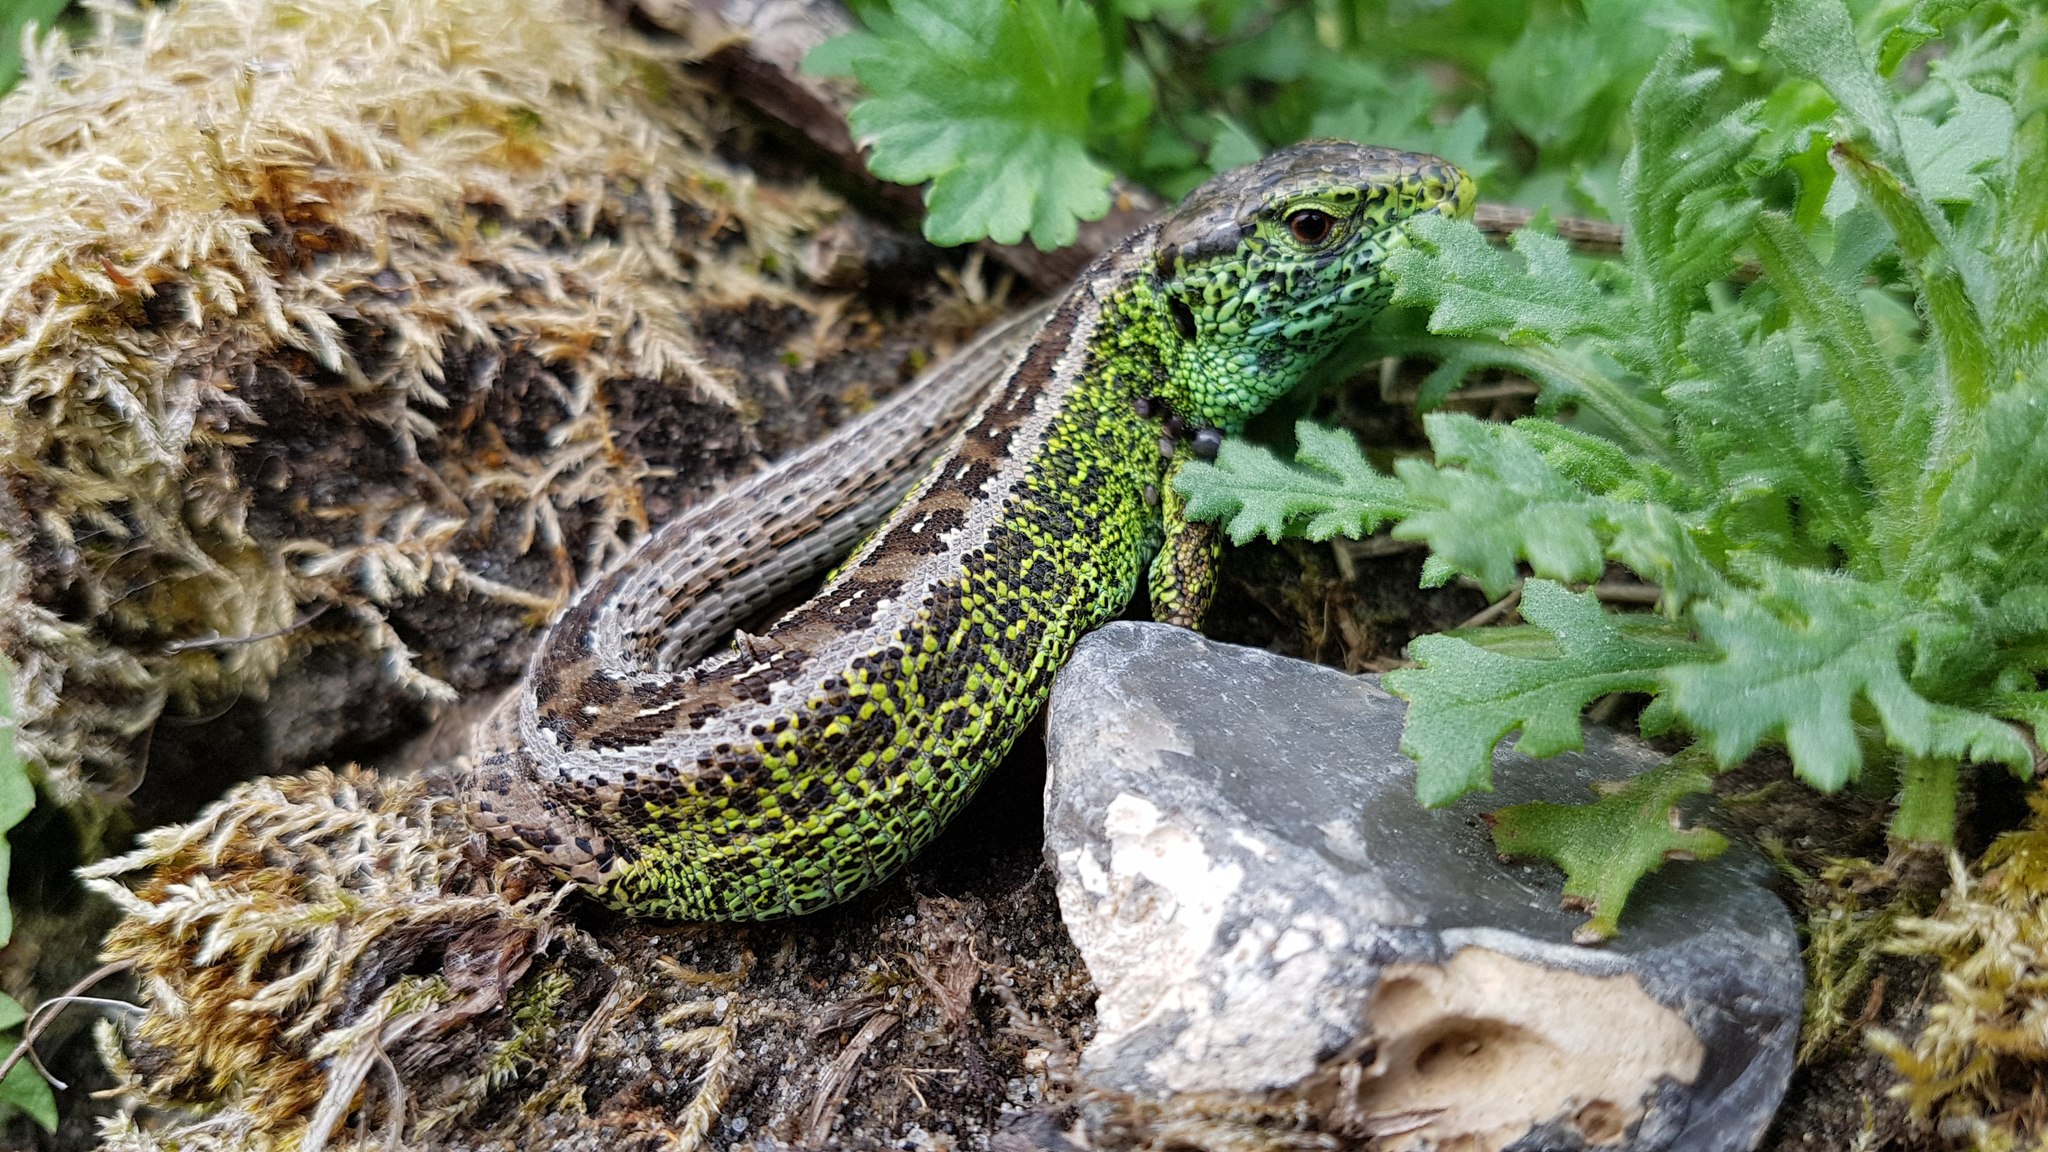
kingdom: Animalia
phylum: Chordata
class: Squamata
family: Lacertidae
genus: Lacerta
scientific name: Lacerta agilis
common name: Sand lizard
